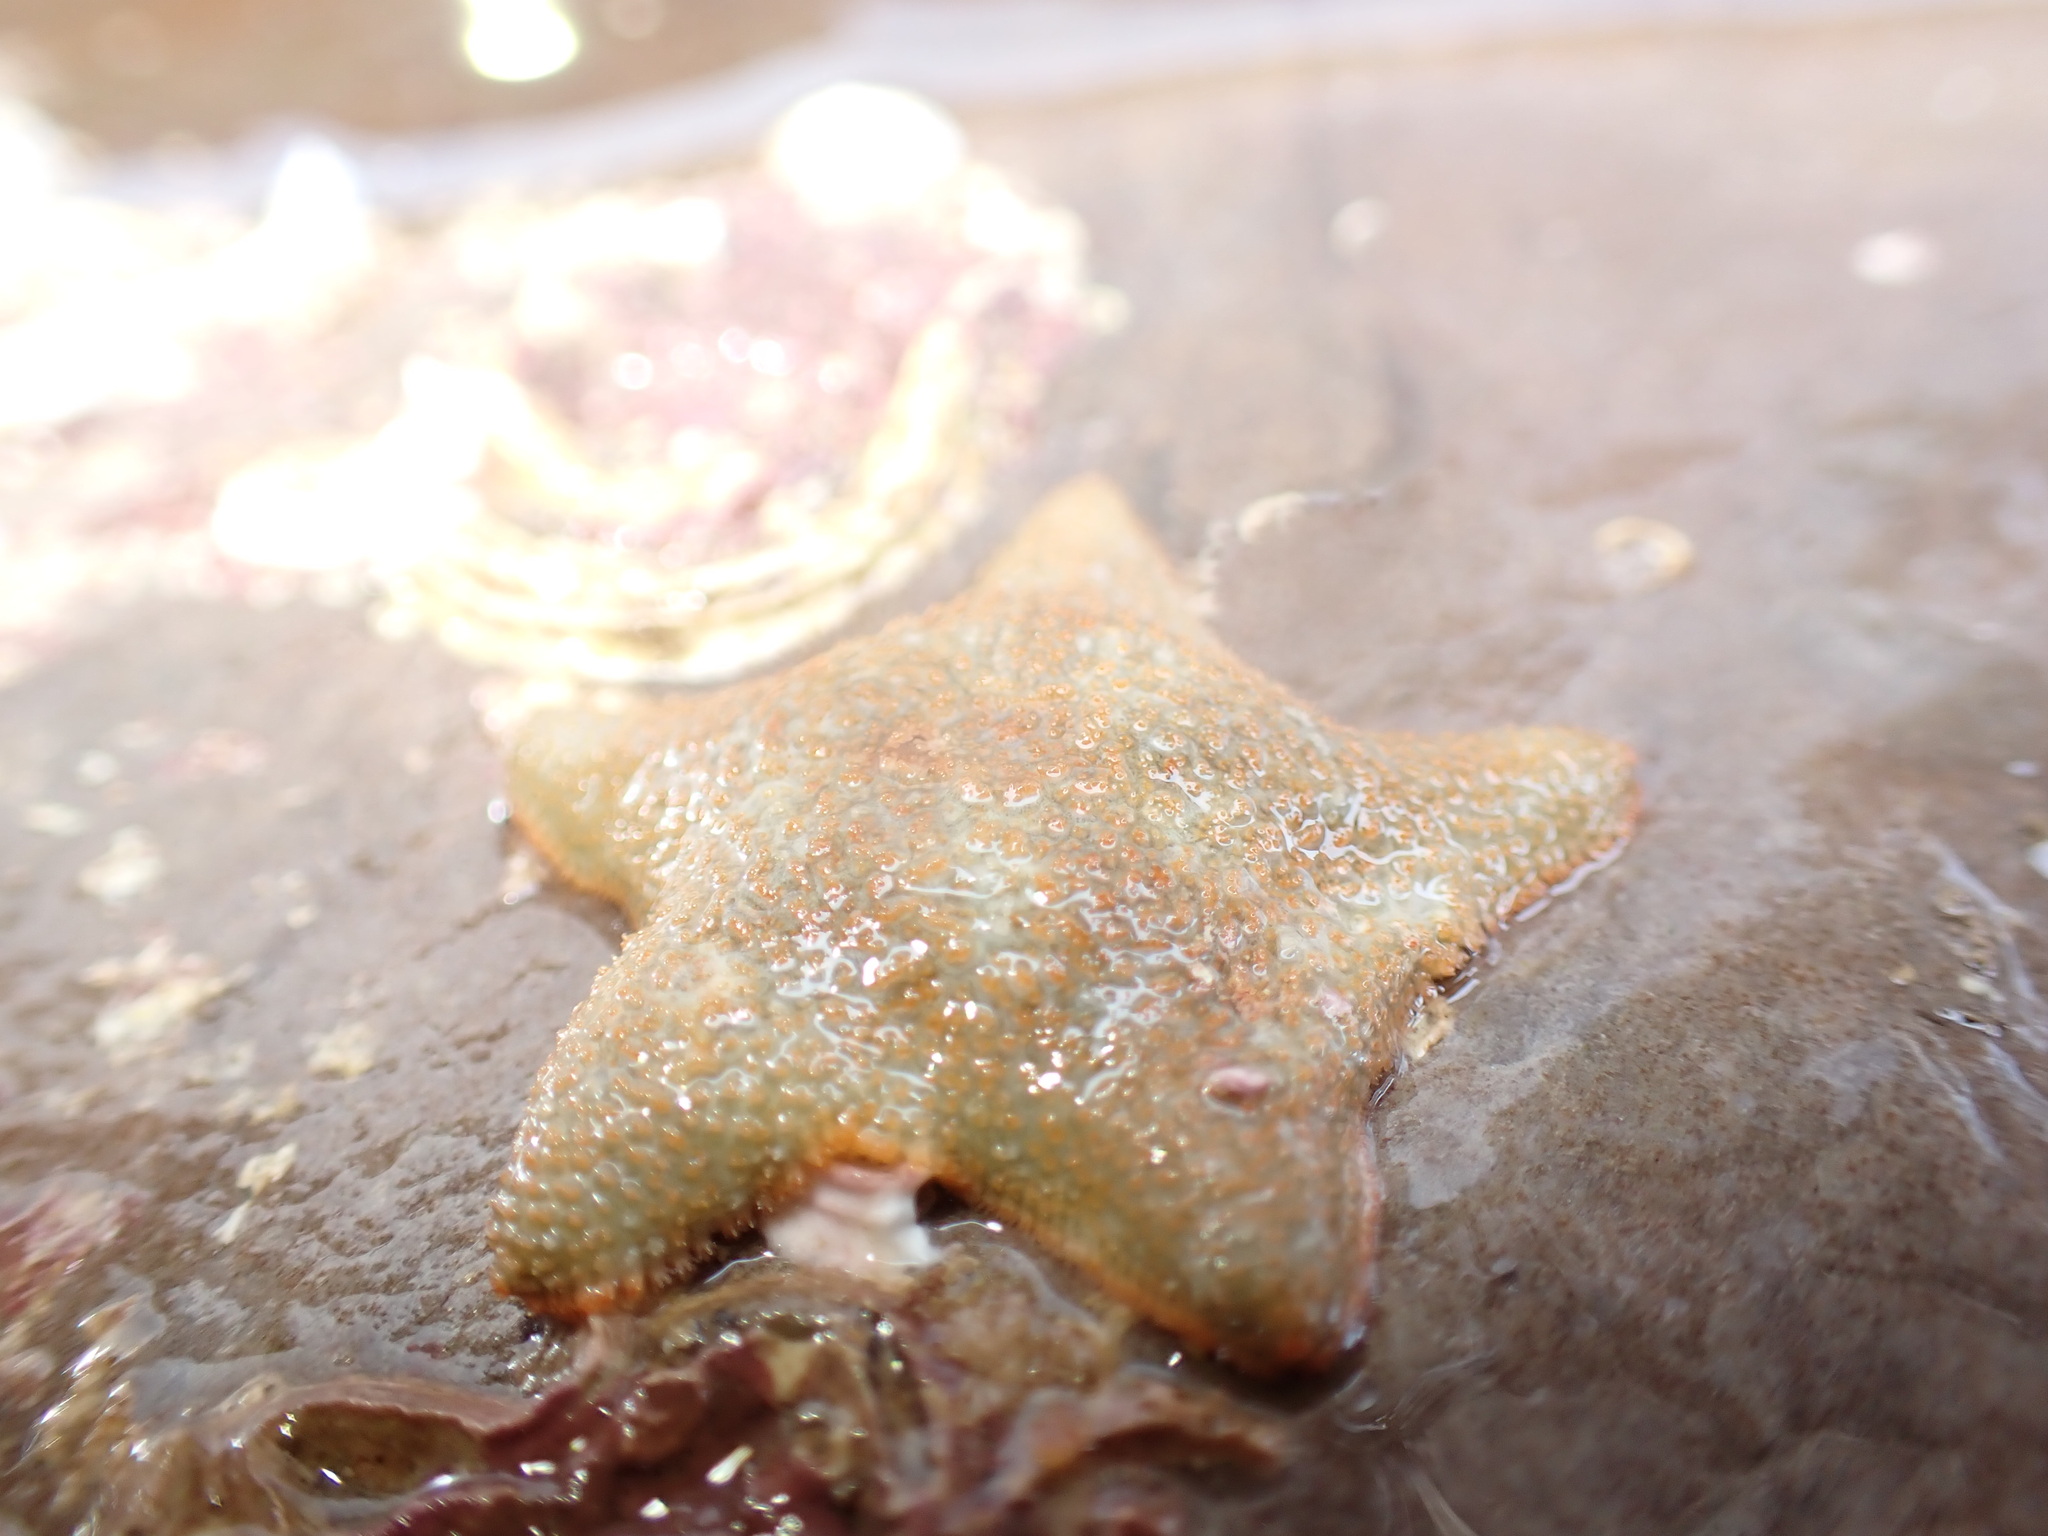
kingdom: Animalia
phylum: Echinodermata
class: Asteroidea
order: Valvatida
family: Asterinidae
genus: Asterina
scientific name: Asterina gibbosa
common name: Cushion star
